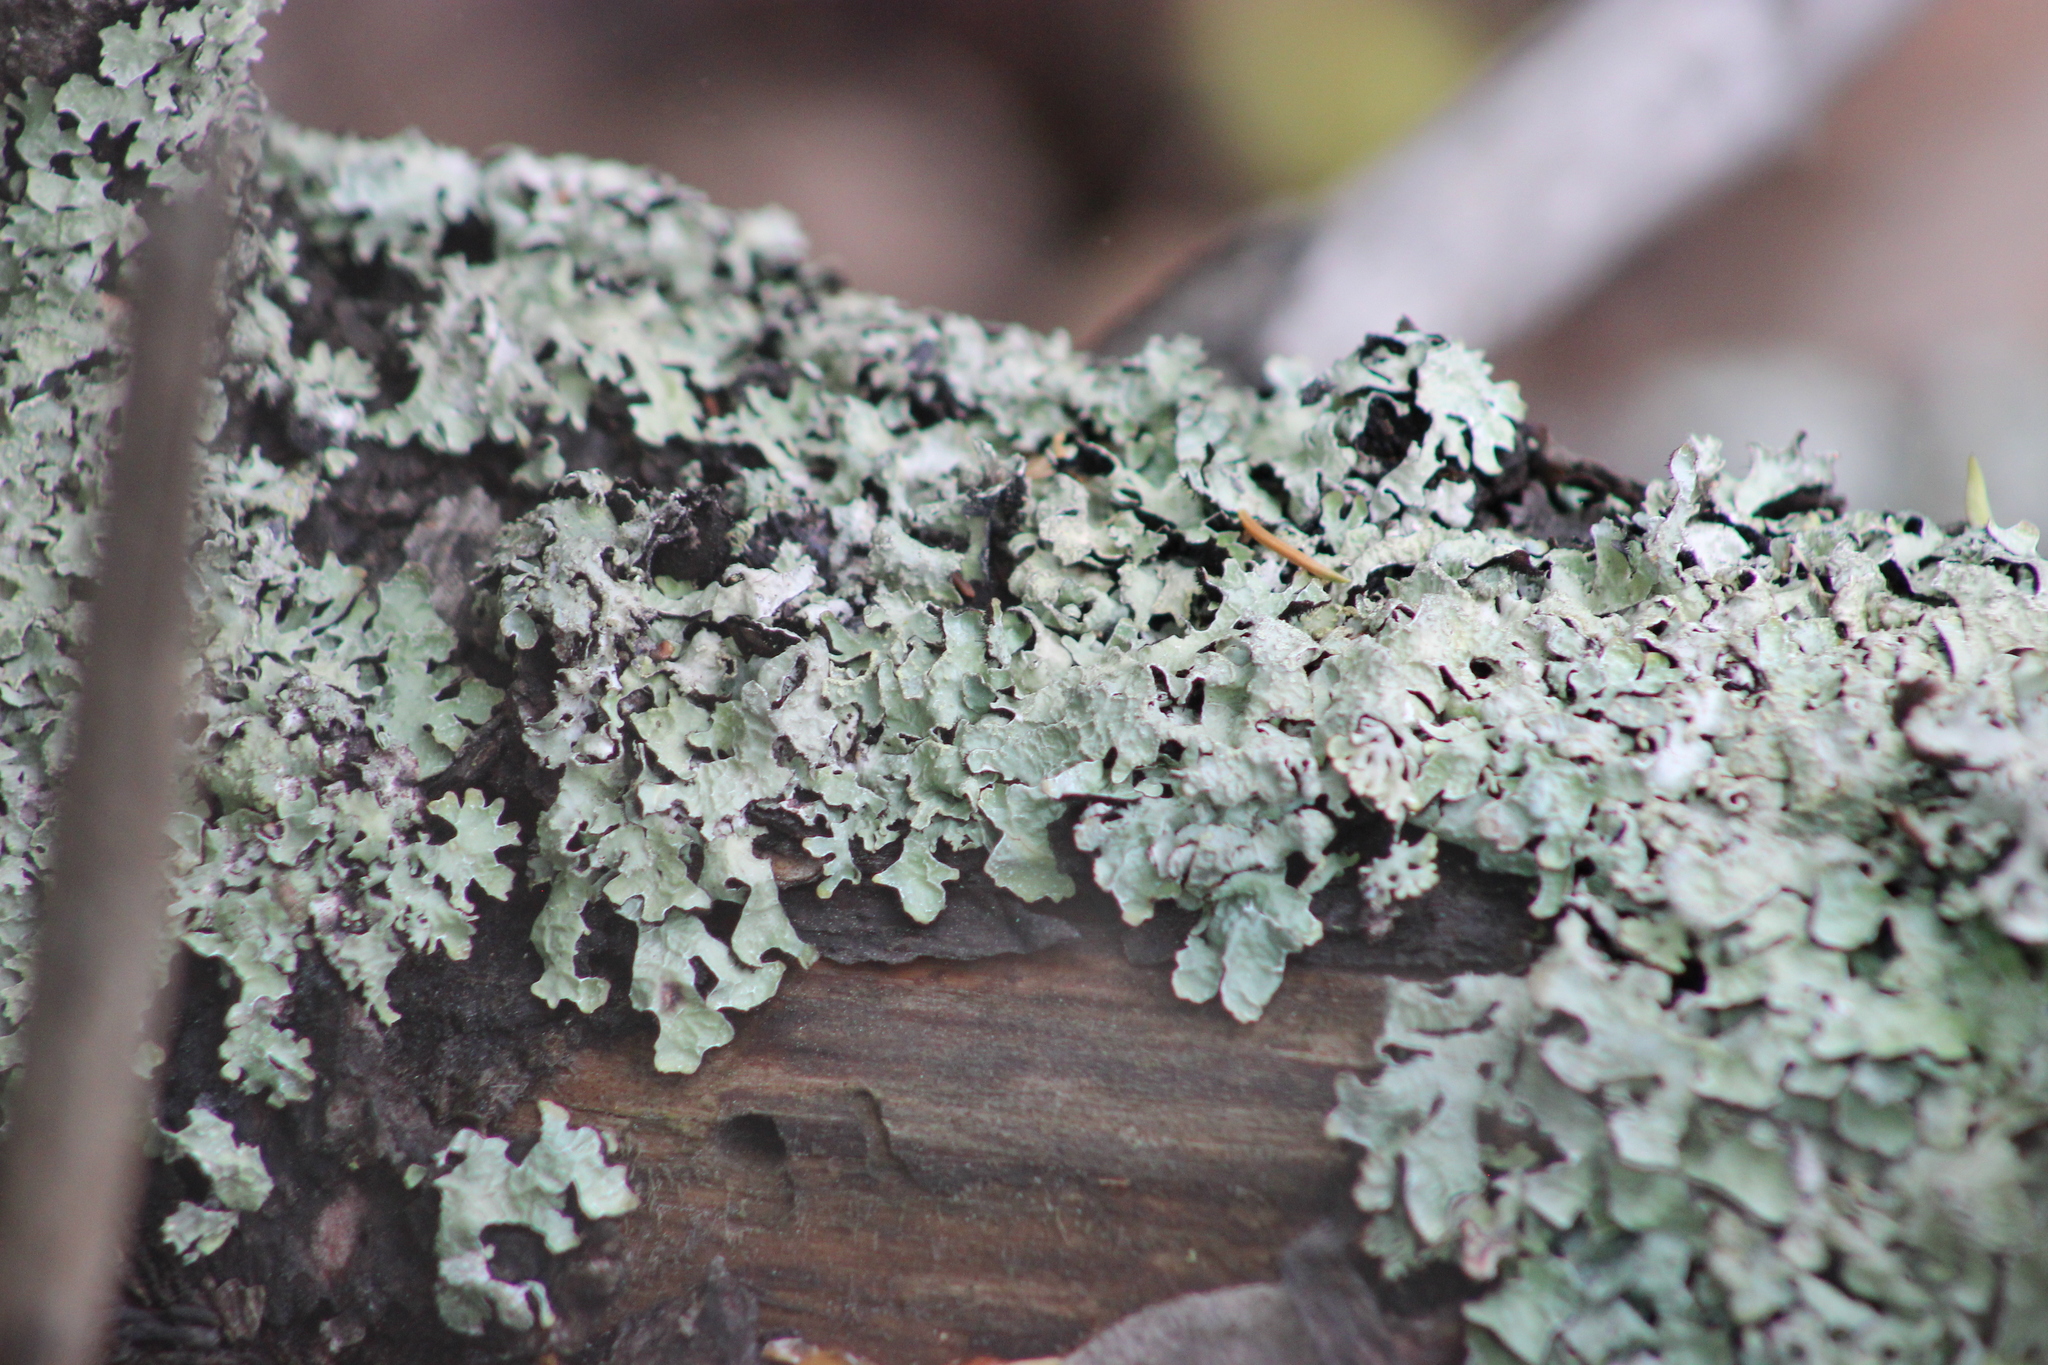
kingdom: Fungi
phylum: Ascomycota
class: Lecanoromycetes
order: Lecanorales
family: Parmeliaceae
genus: Parmelia
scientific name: Parmelia sulcata
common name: Netted shield lichen
